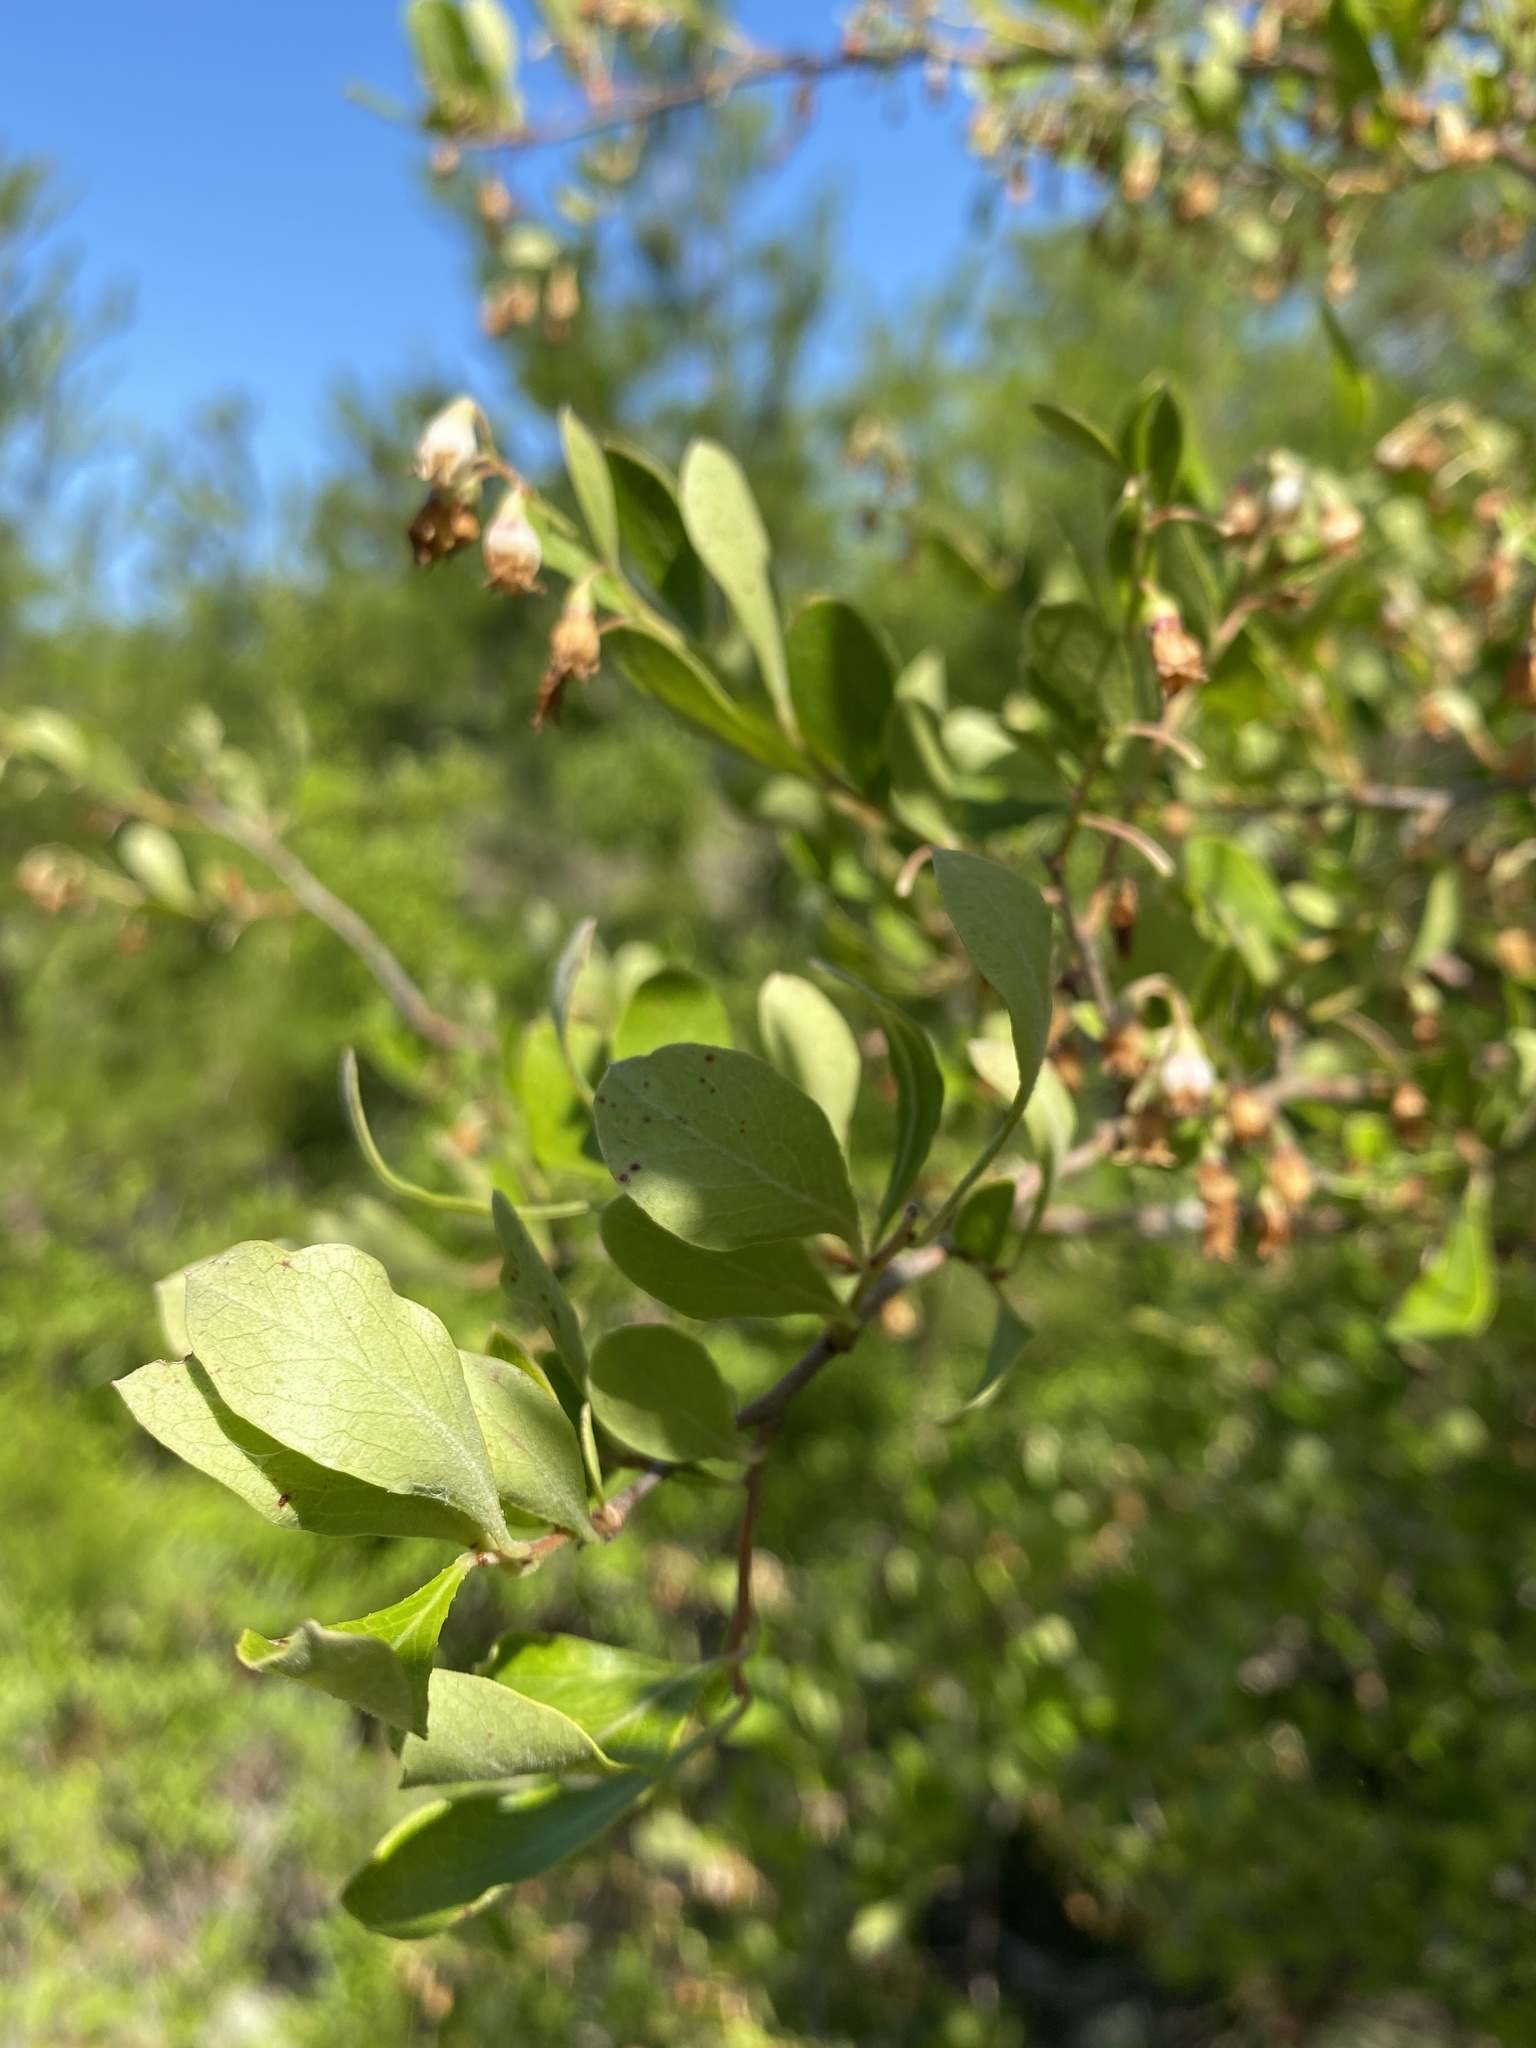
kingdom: Plantae
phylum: Tracheophyta
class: Magnoliopsida
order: Ericales
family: Ericaceae
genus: Vaccinium
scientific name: Vaccinium arboreum
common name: Farkleberry
